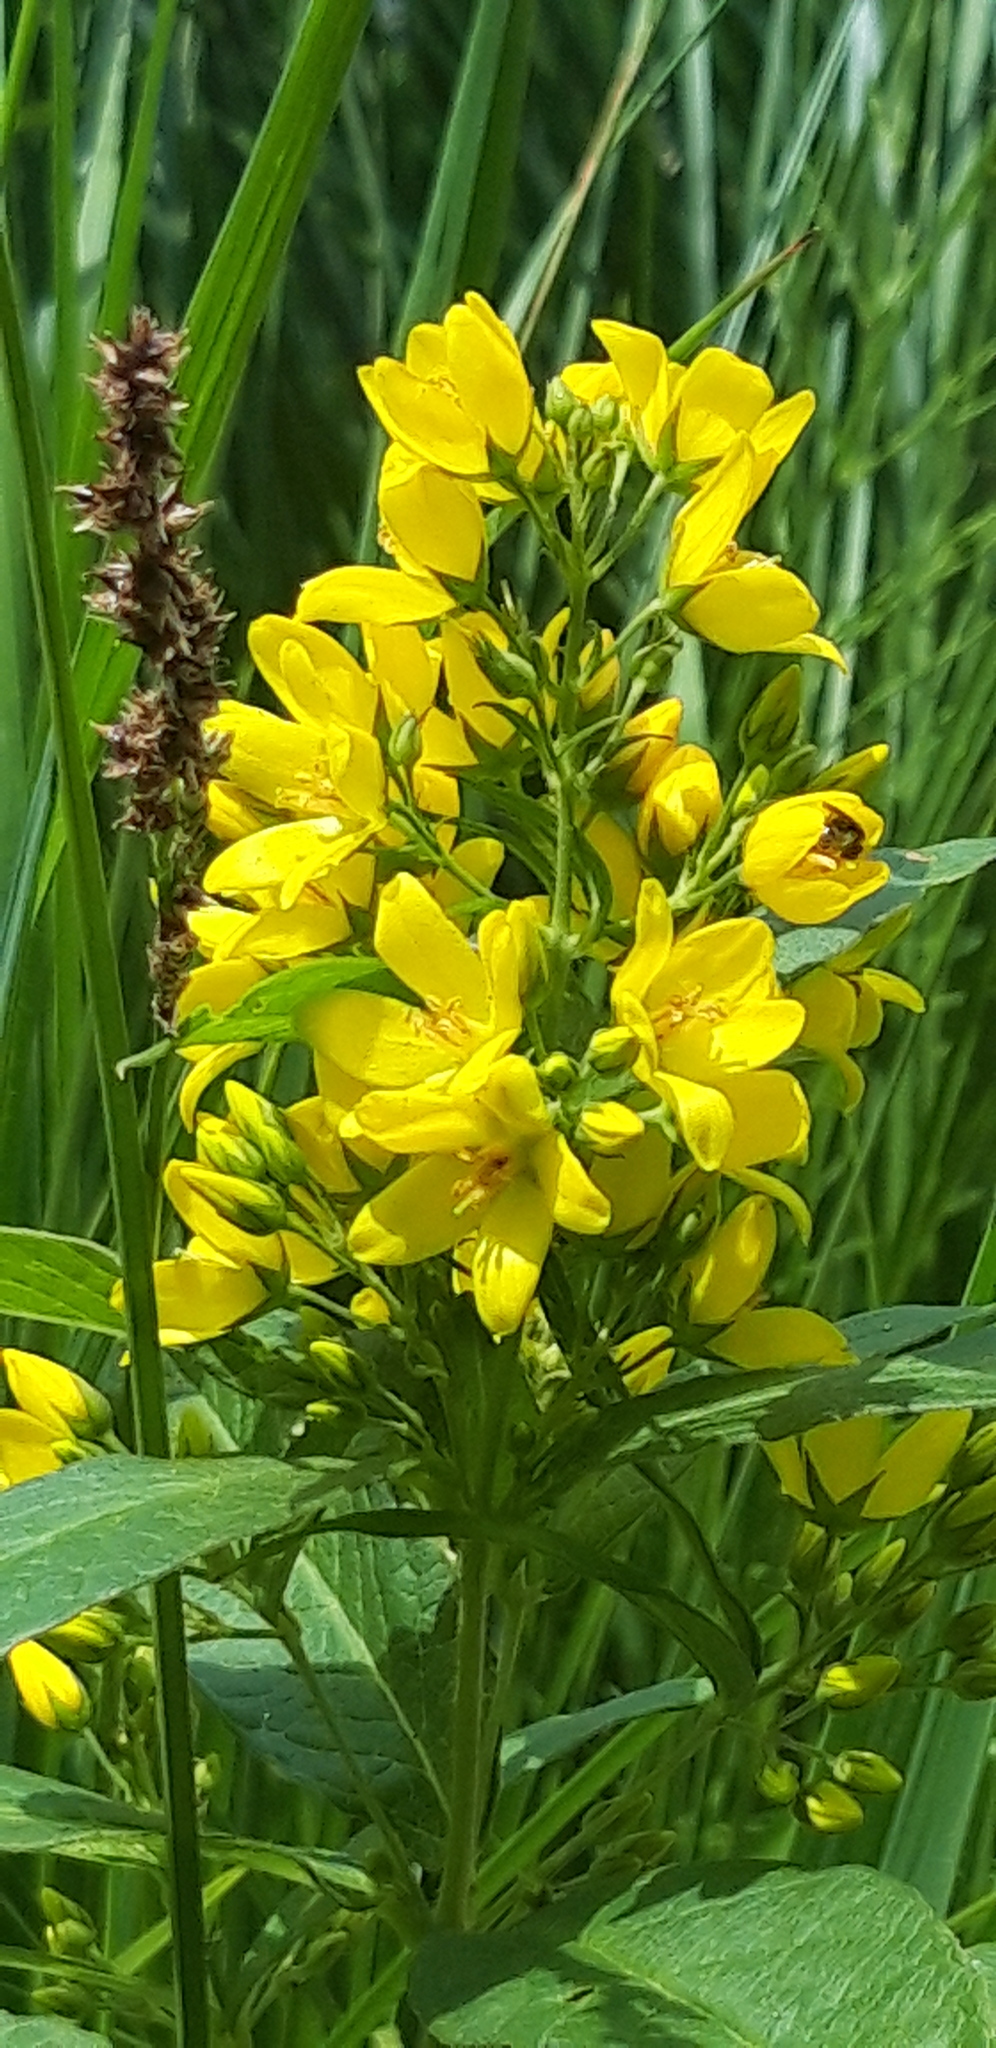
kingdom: Plantae
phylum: Tracheophyta
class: Magnoliopsida
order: Ericales
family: Primulaceae
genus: Lysimachia
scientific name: Lysimachia vulgaris
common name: Yellow loosestrife
